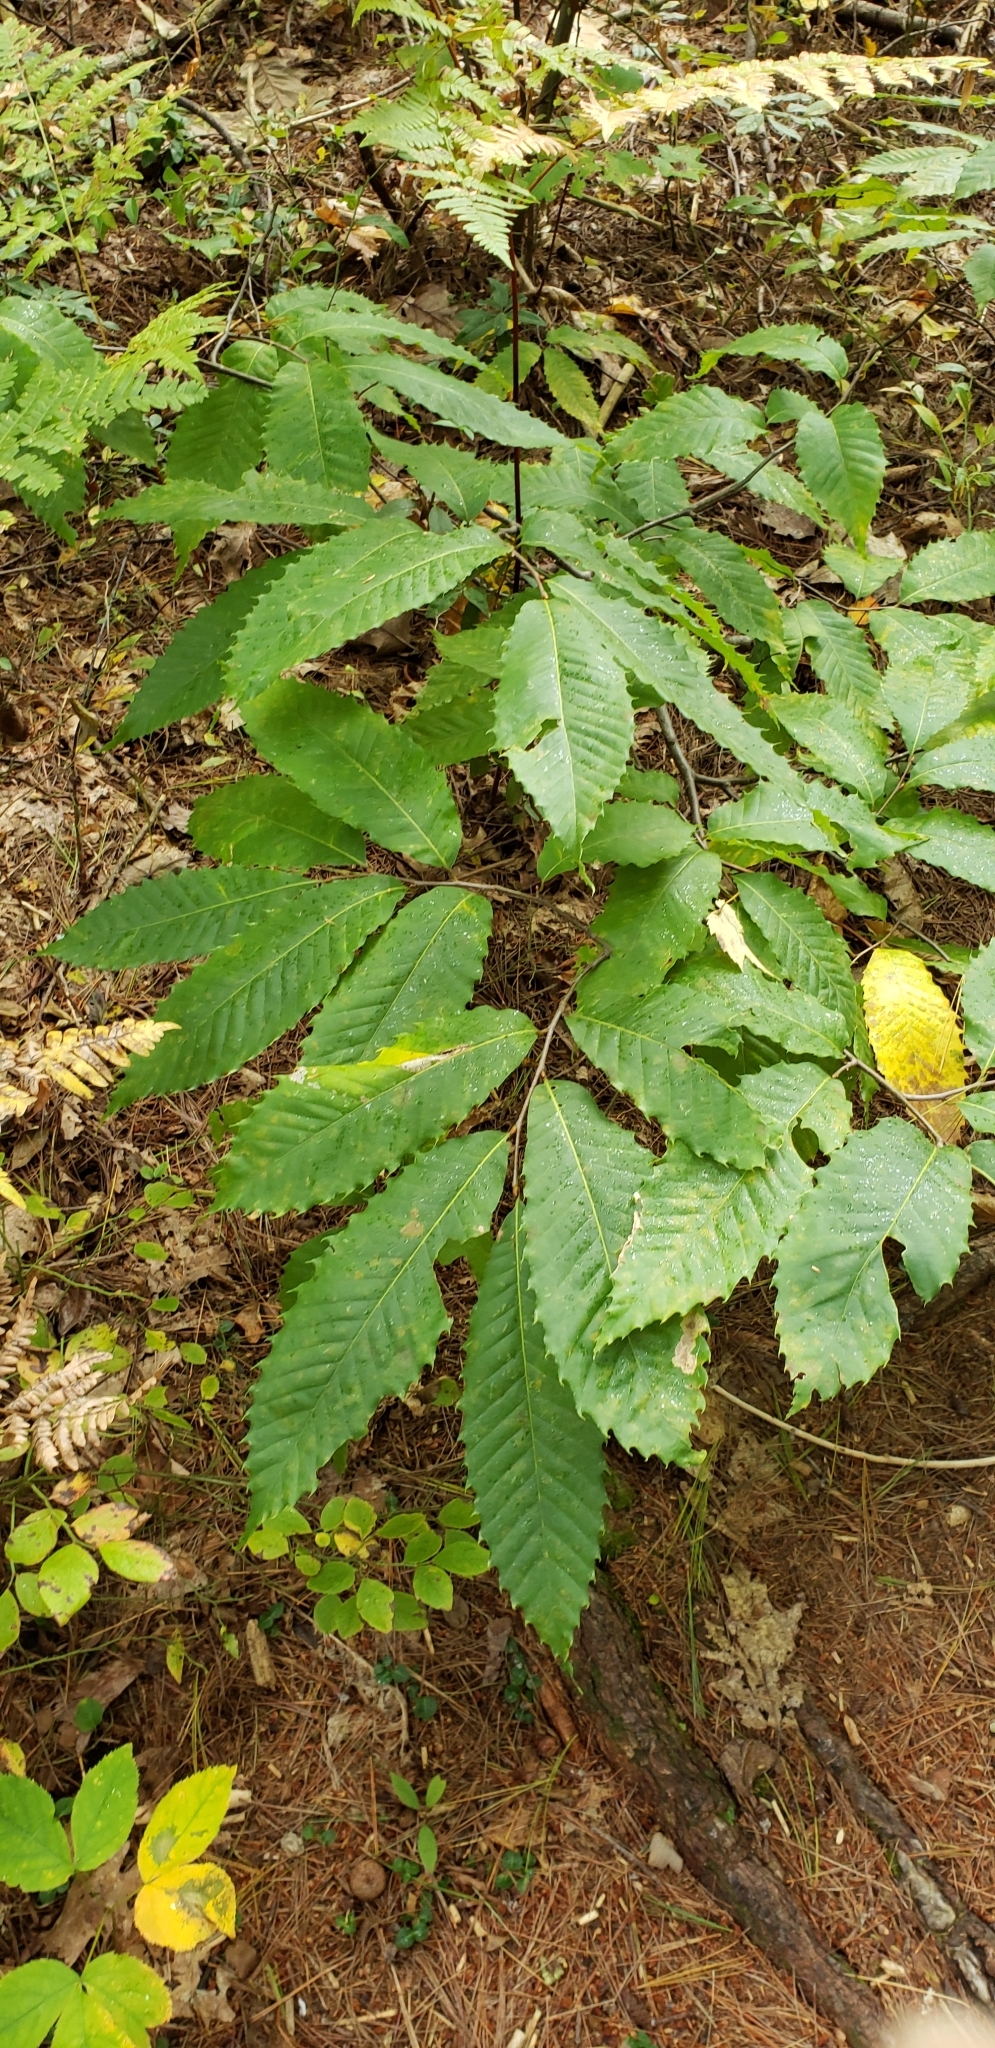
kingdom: Plantae
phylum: Tracheophyta
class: Magnoliopsida
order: Fagales
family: Fagaceae
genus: Castanea
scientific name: Castanea dentata
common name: American chestnut
